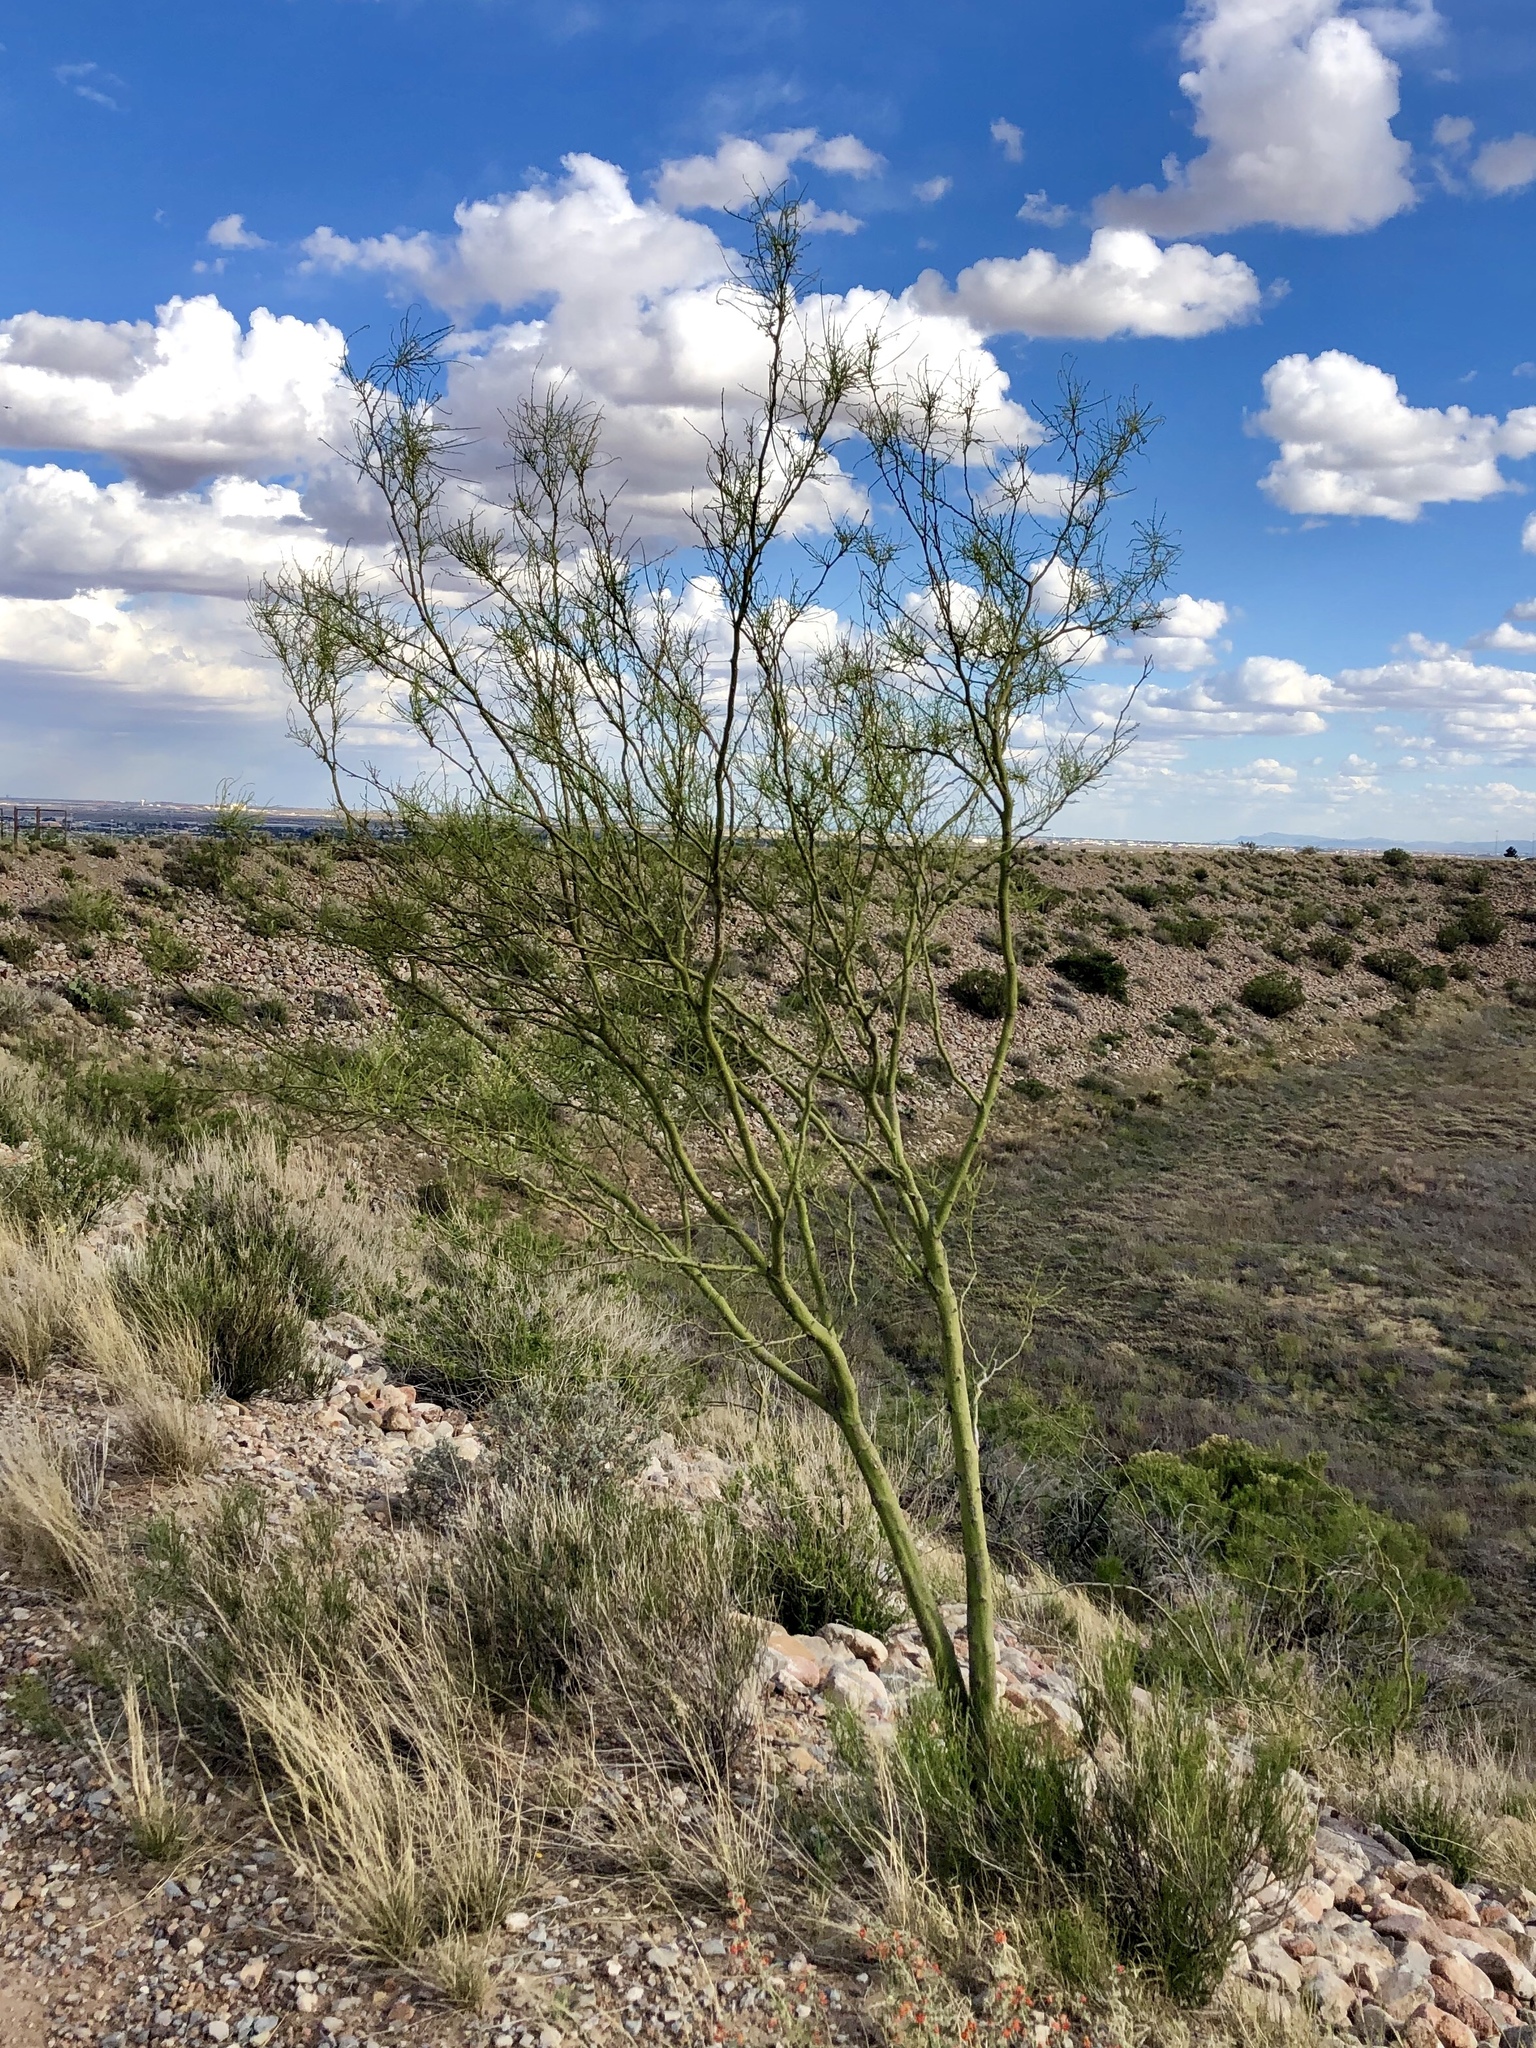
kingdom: Plantae
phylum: Tracheophyta
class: Magnoliopsida
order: Fabales
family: Fabaceae
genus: Parkinsonia
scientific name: Parkinsonia aculeata
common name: Jerusalem thorn
